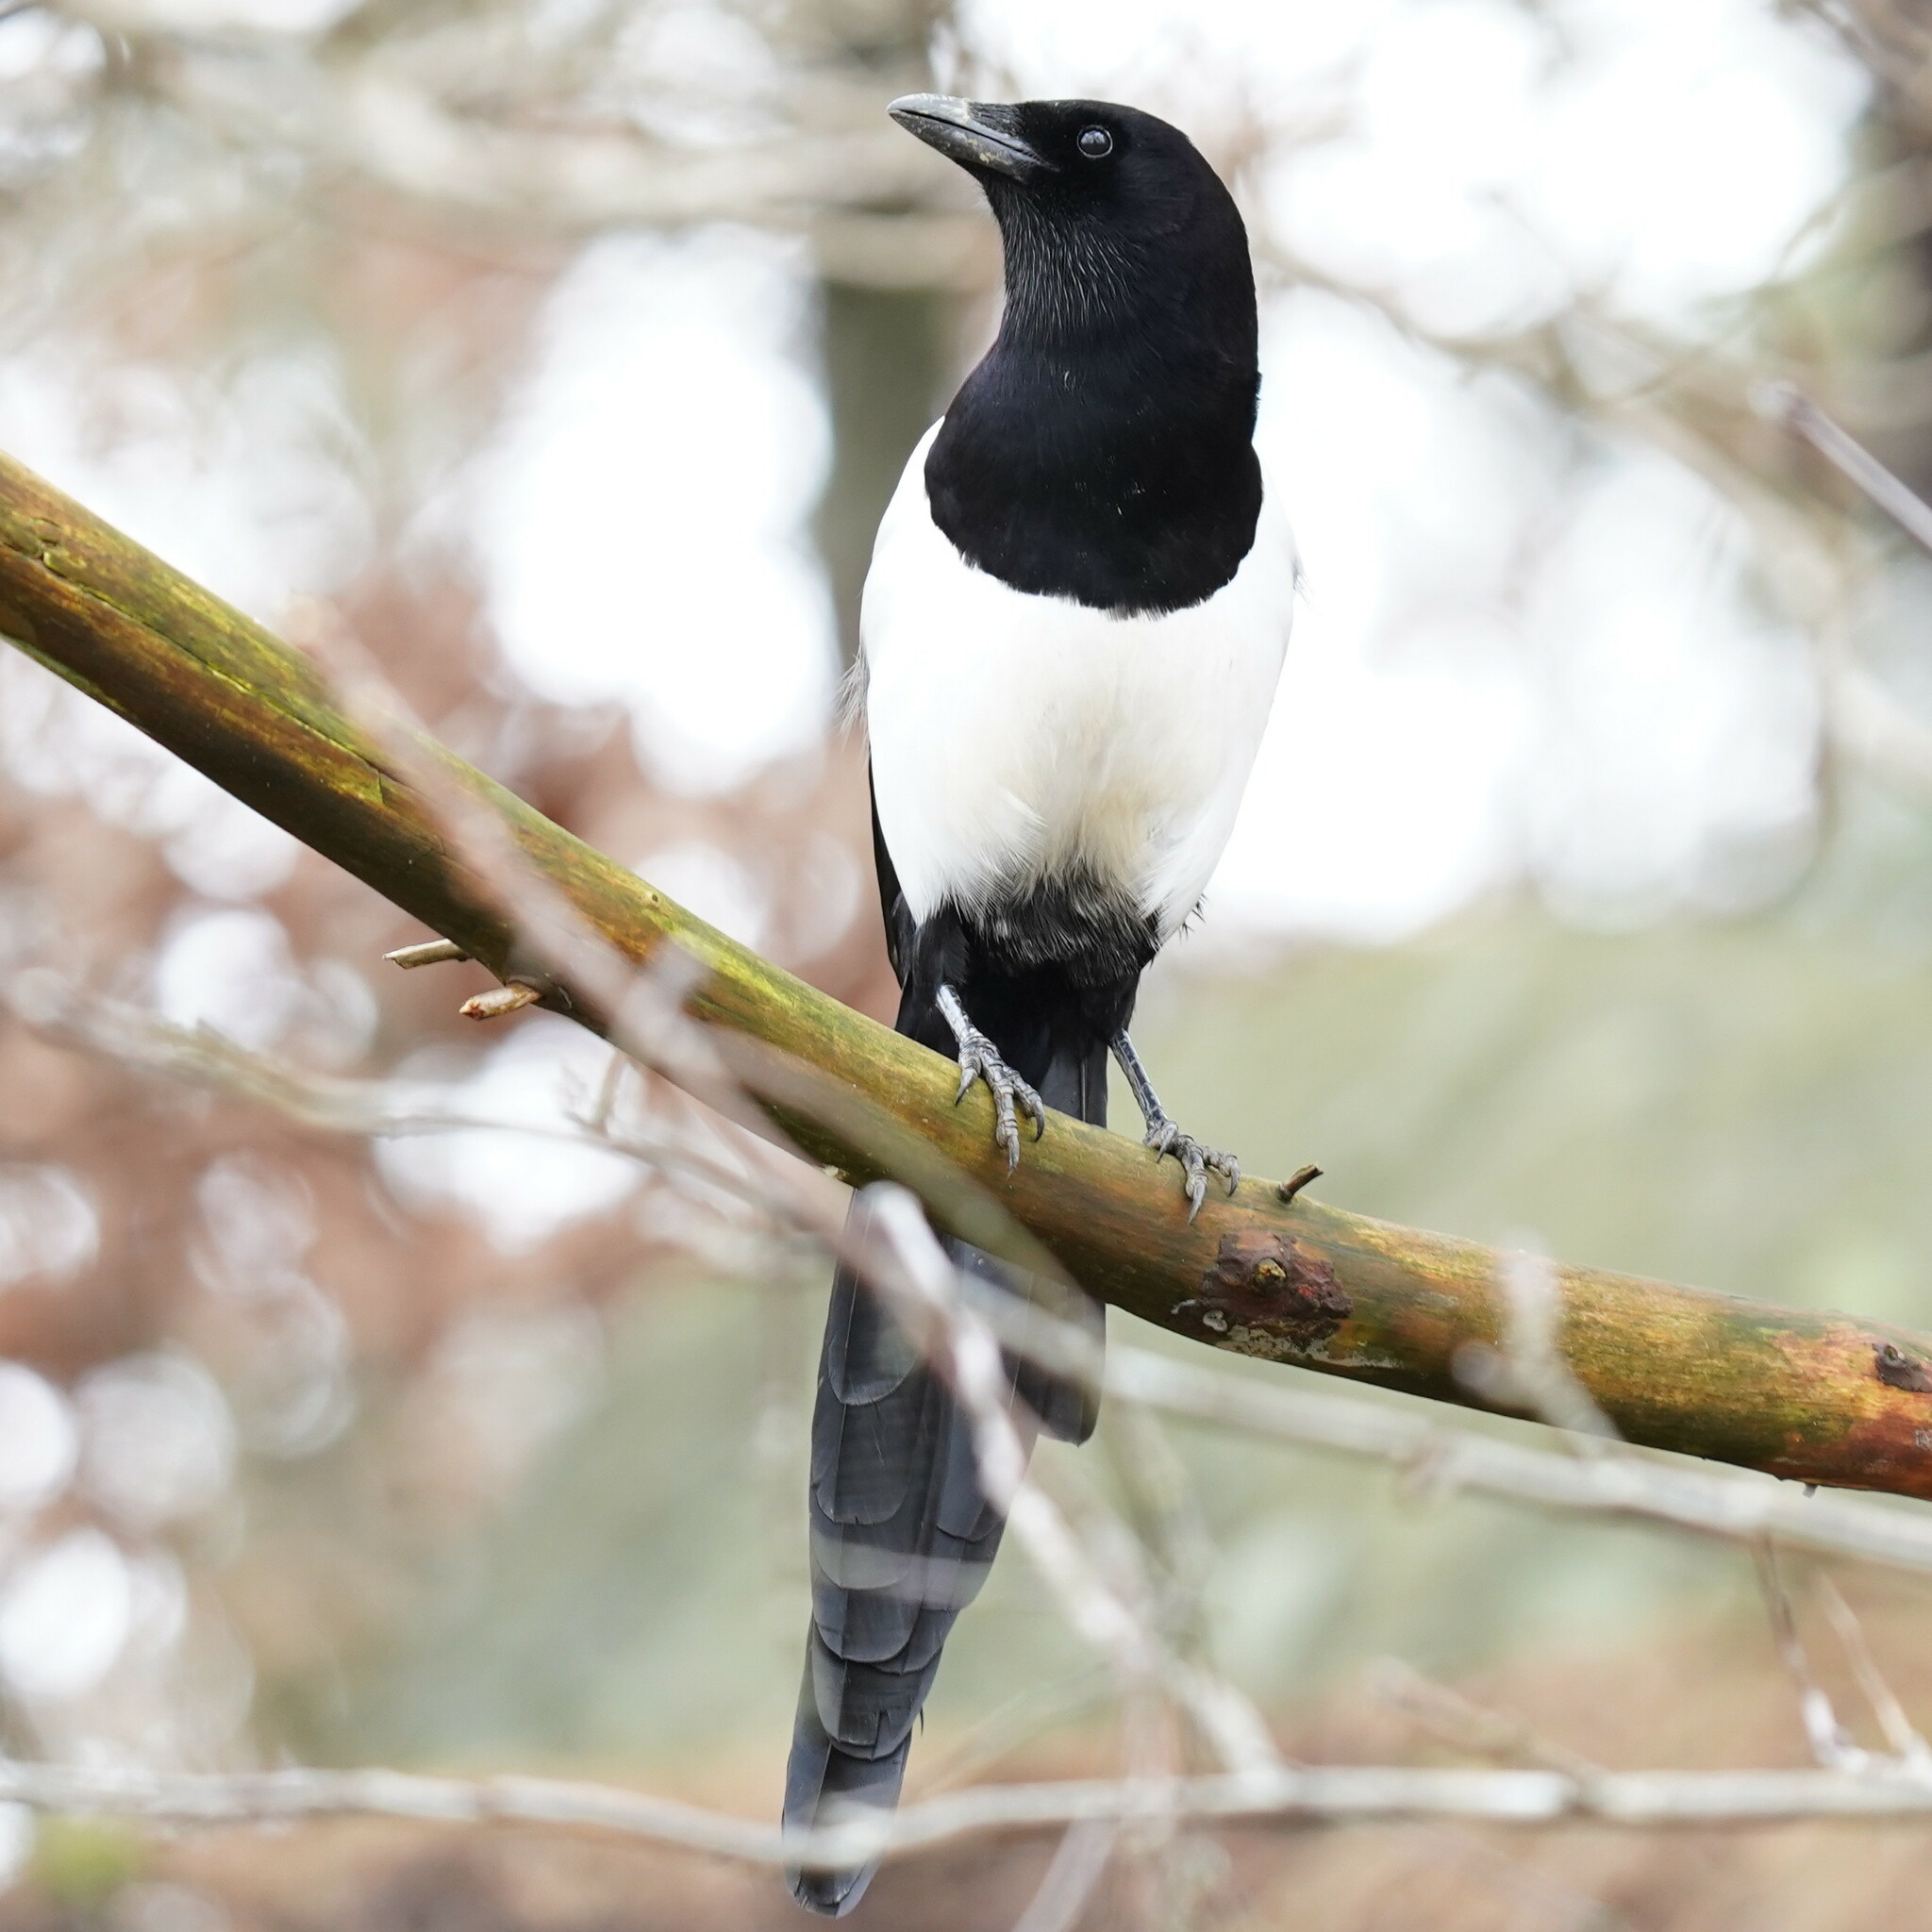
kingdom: Animalia
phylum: Chordata
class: Aves
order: Passeriformes
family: Corvidae
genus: Pica
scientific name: Pica pica
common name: Eurasian magpie
